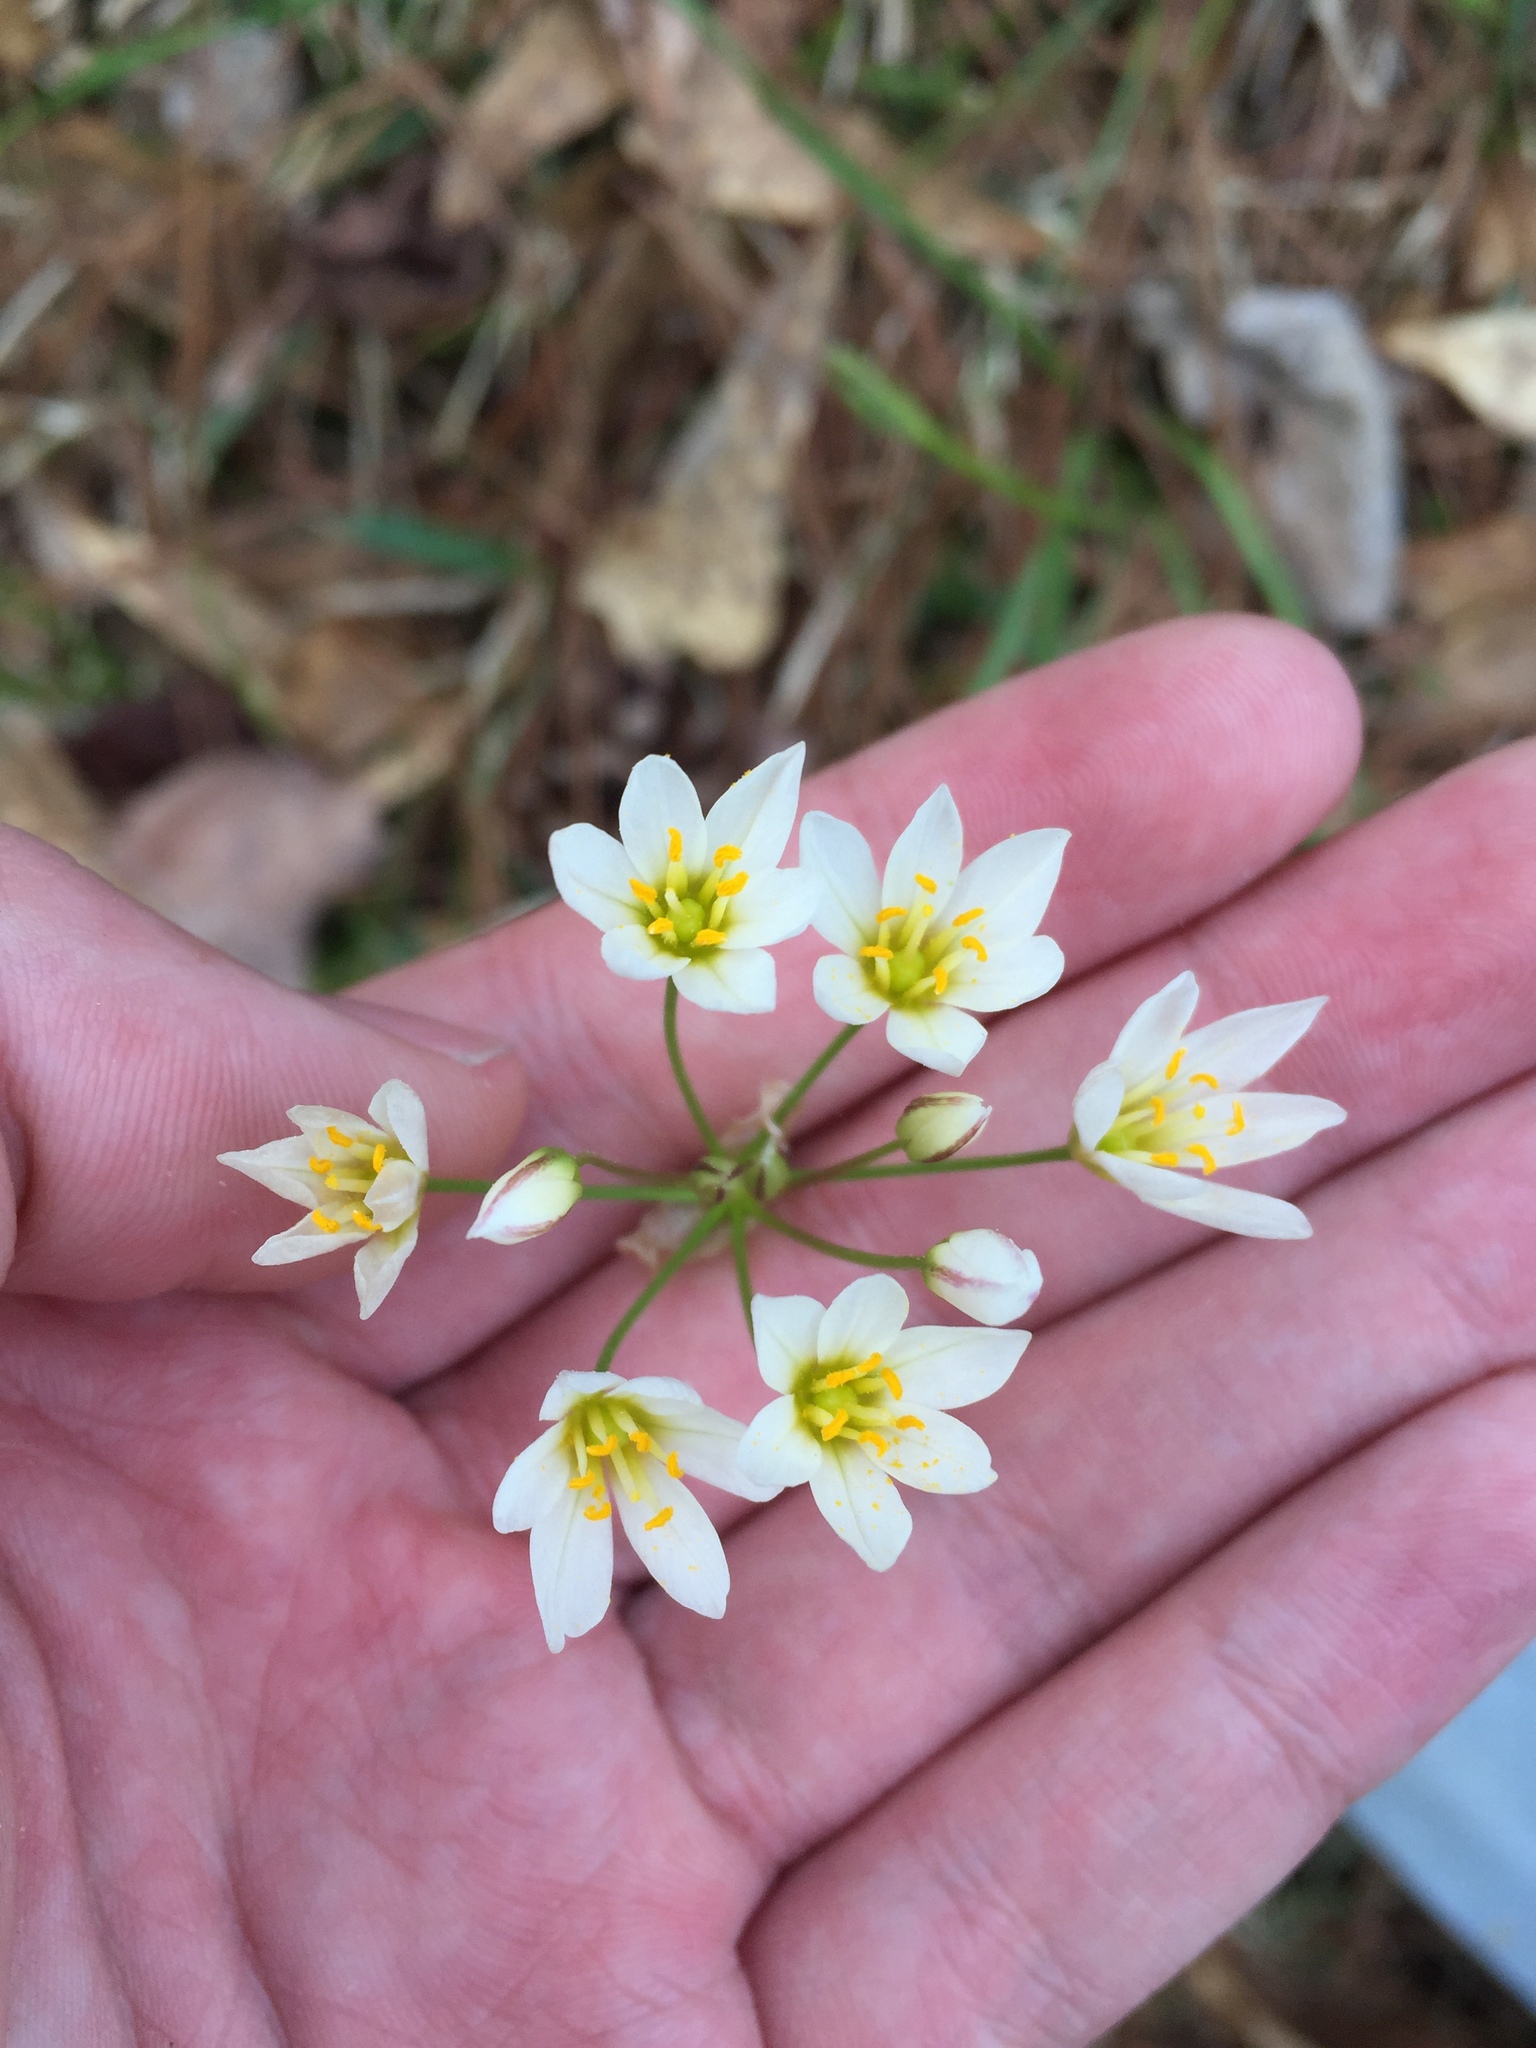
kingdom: Plantae
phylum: Tracheophyta
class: Liliopsida
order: Asparagales
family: Amaryllidaceae
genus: Nothoscordum
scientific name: Nothoscordum bivalve
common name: Crow-poison
